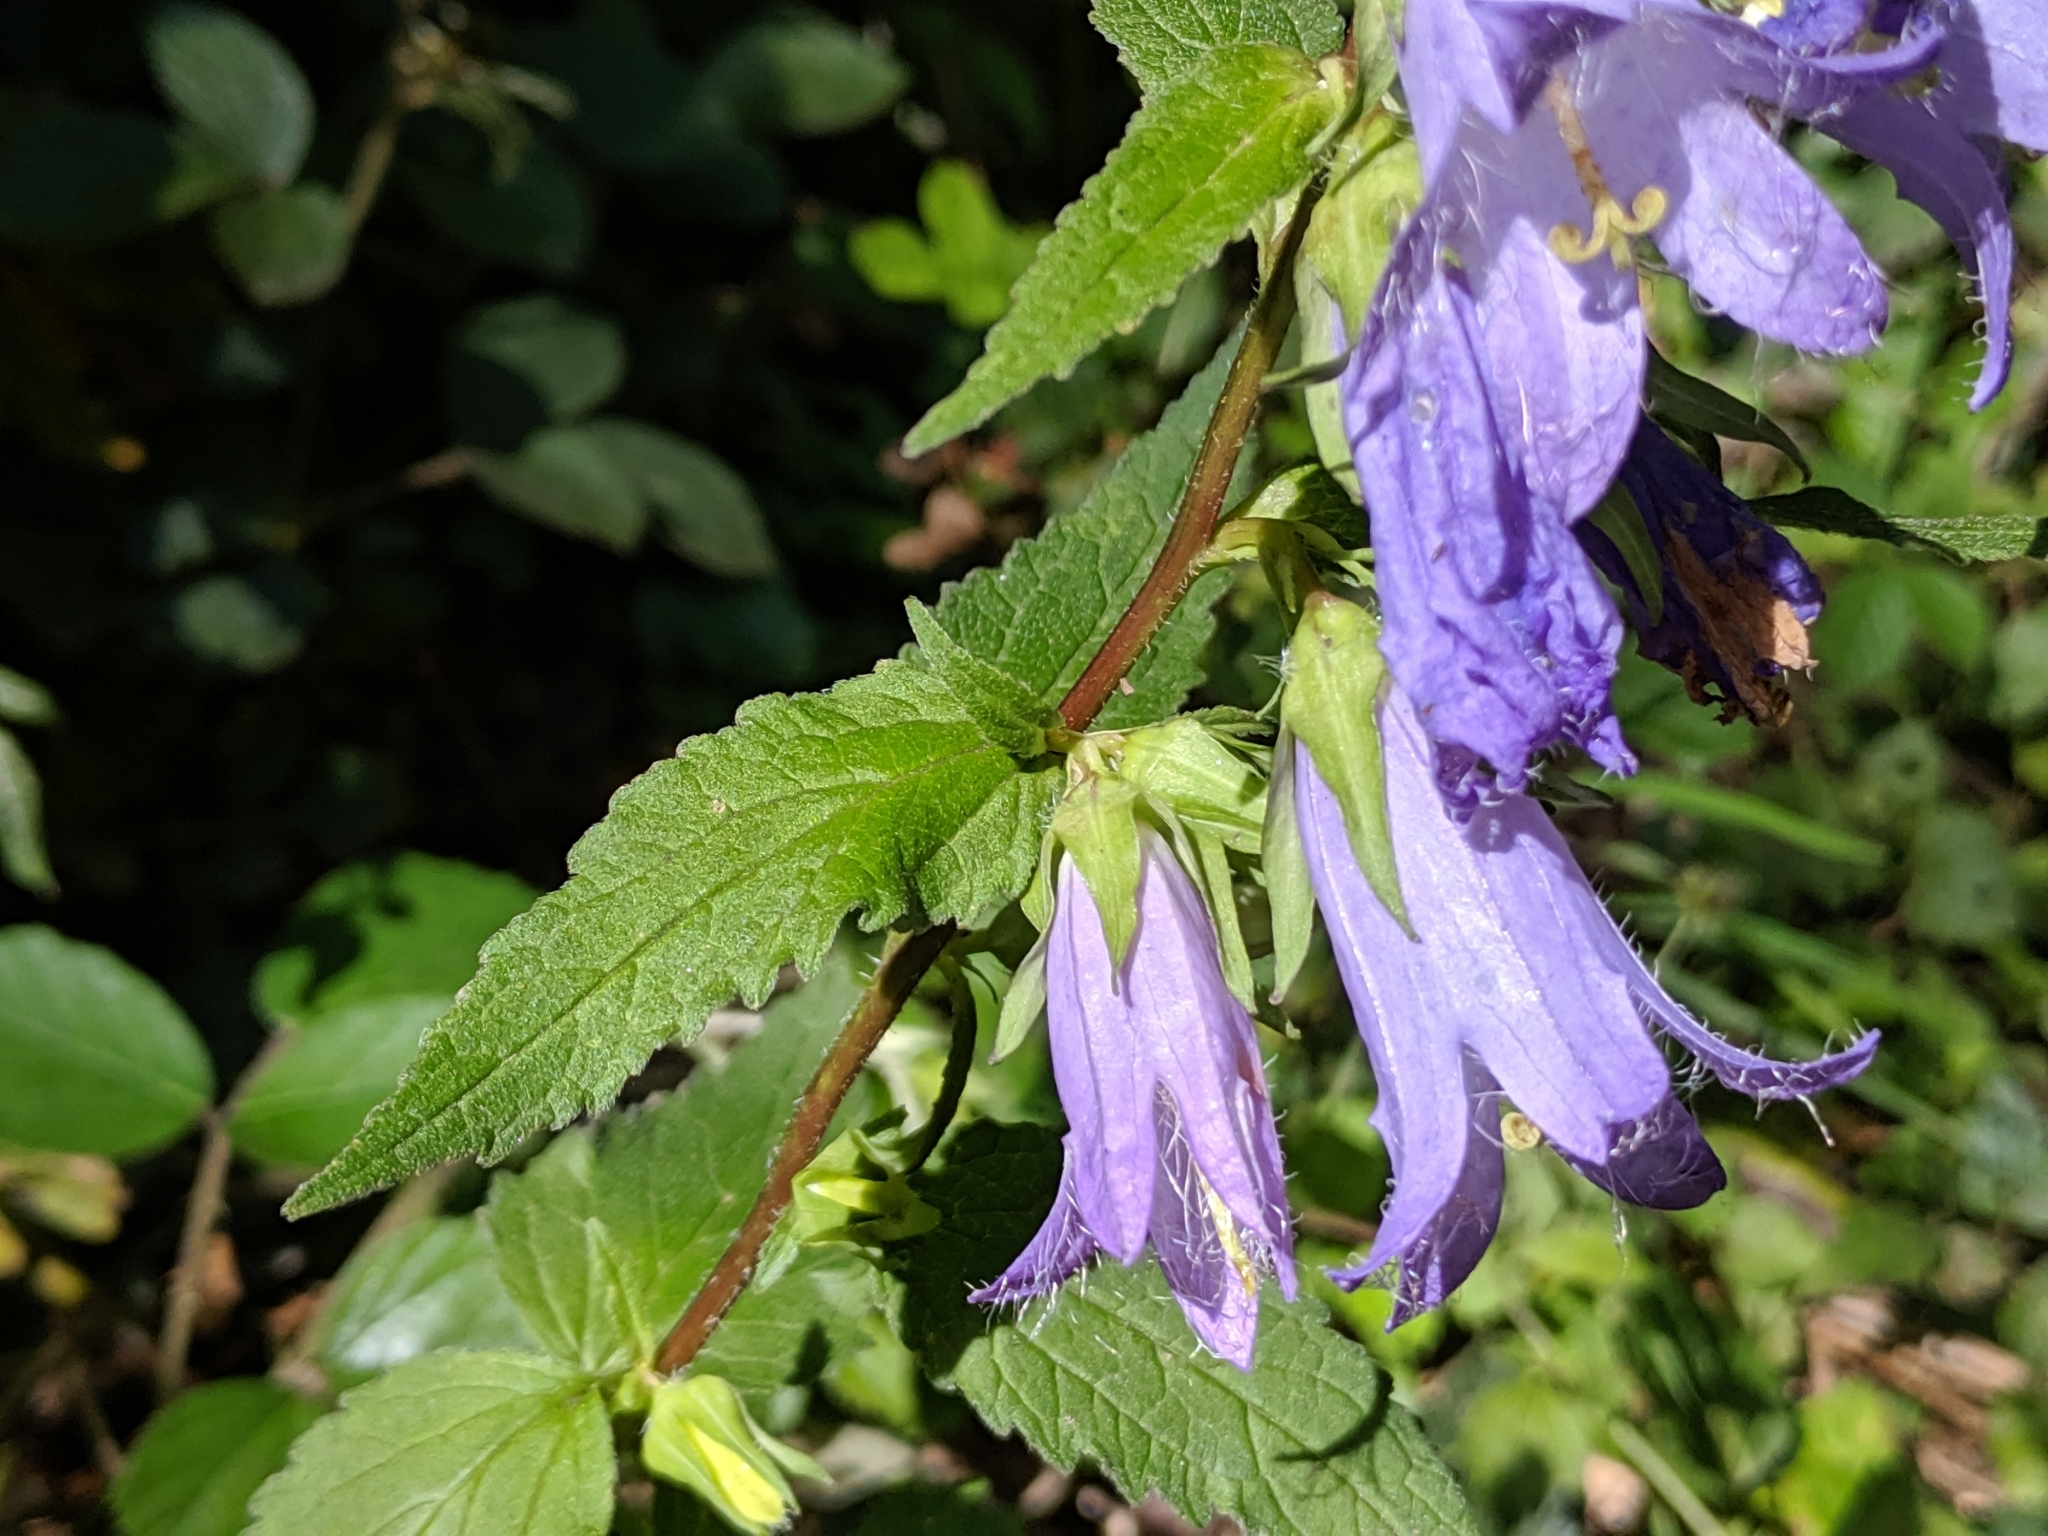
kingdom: Plantae
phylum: Tracheophyta
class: Magnoliopsida
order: Asterales
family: Campanulaceae
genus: Campanula
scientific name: Campanula trachelium
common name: Nettle-leaved bellflower
